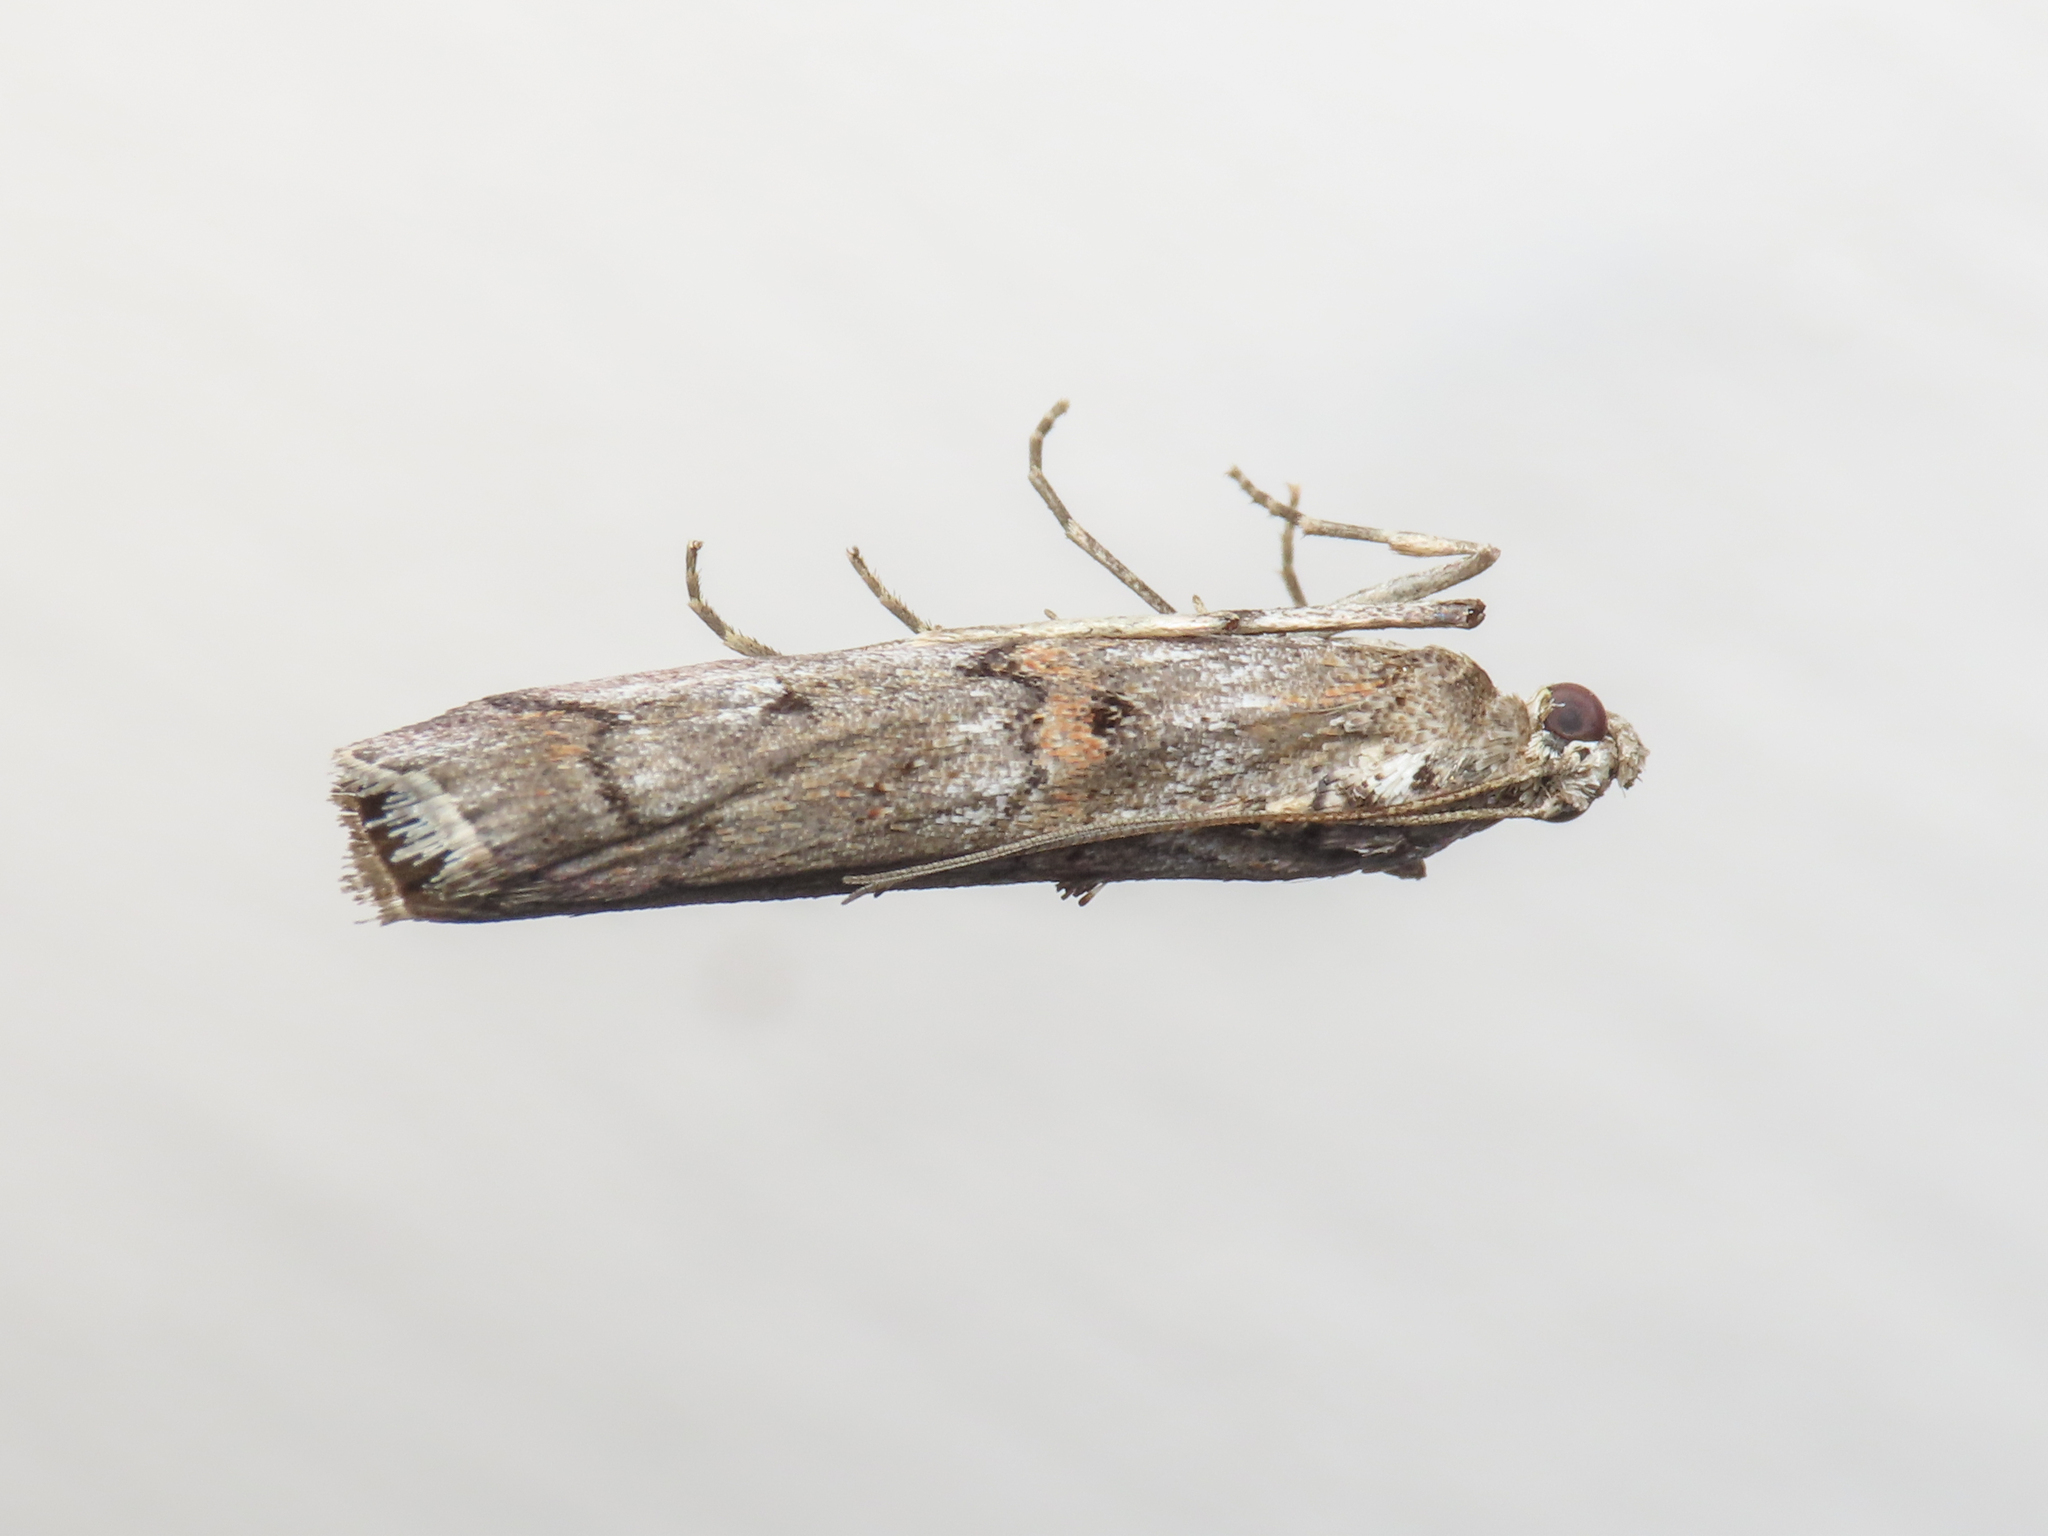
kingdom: Animalia
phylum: Arthropoda
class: Insecta
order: Lepidoptera
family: Pyralidae
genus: Pempelia
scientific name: Pempelia palumbella
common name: Heather knot-horn
